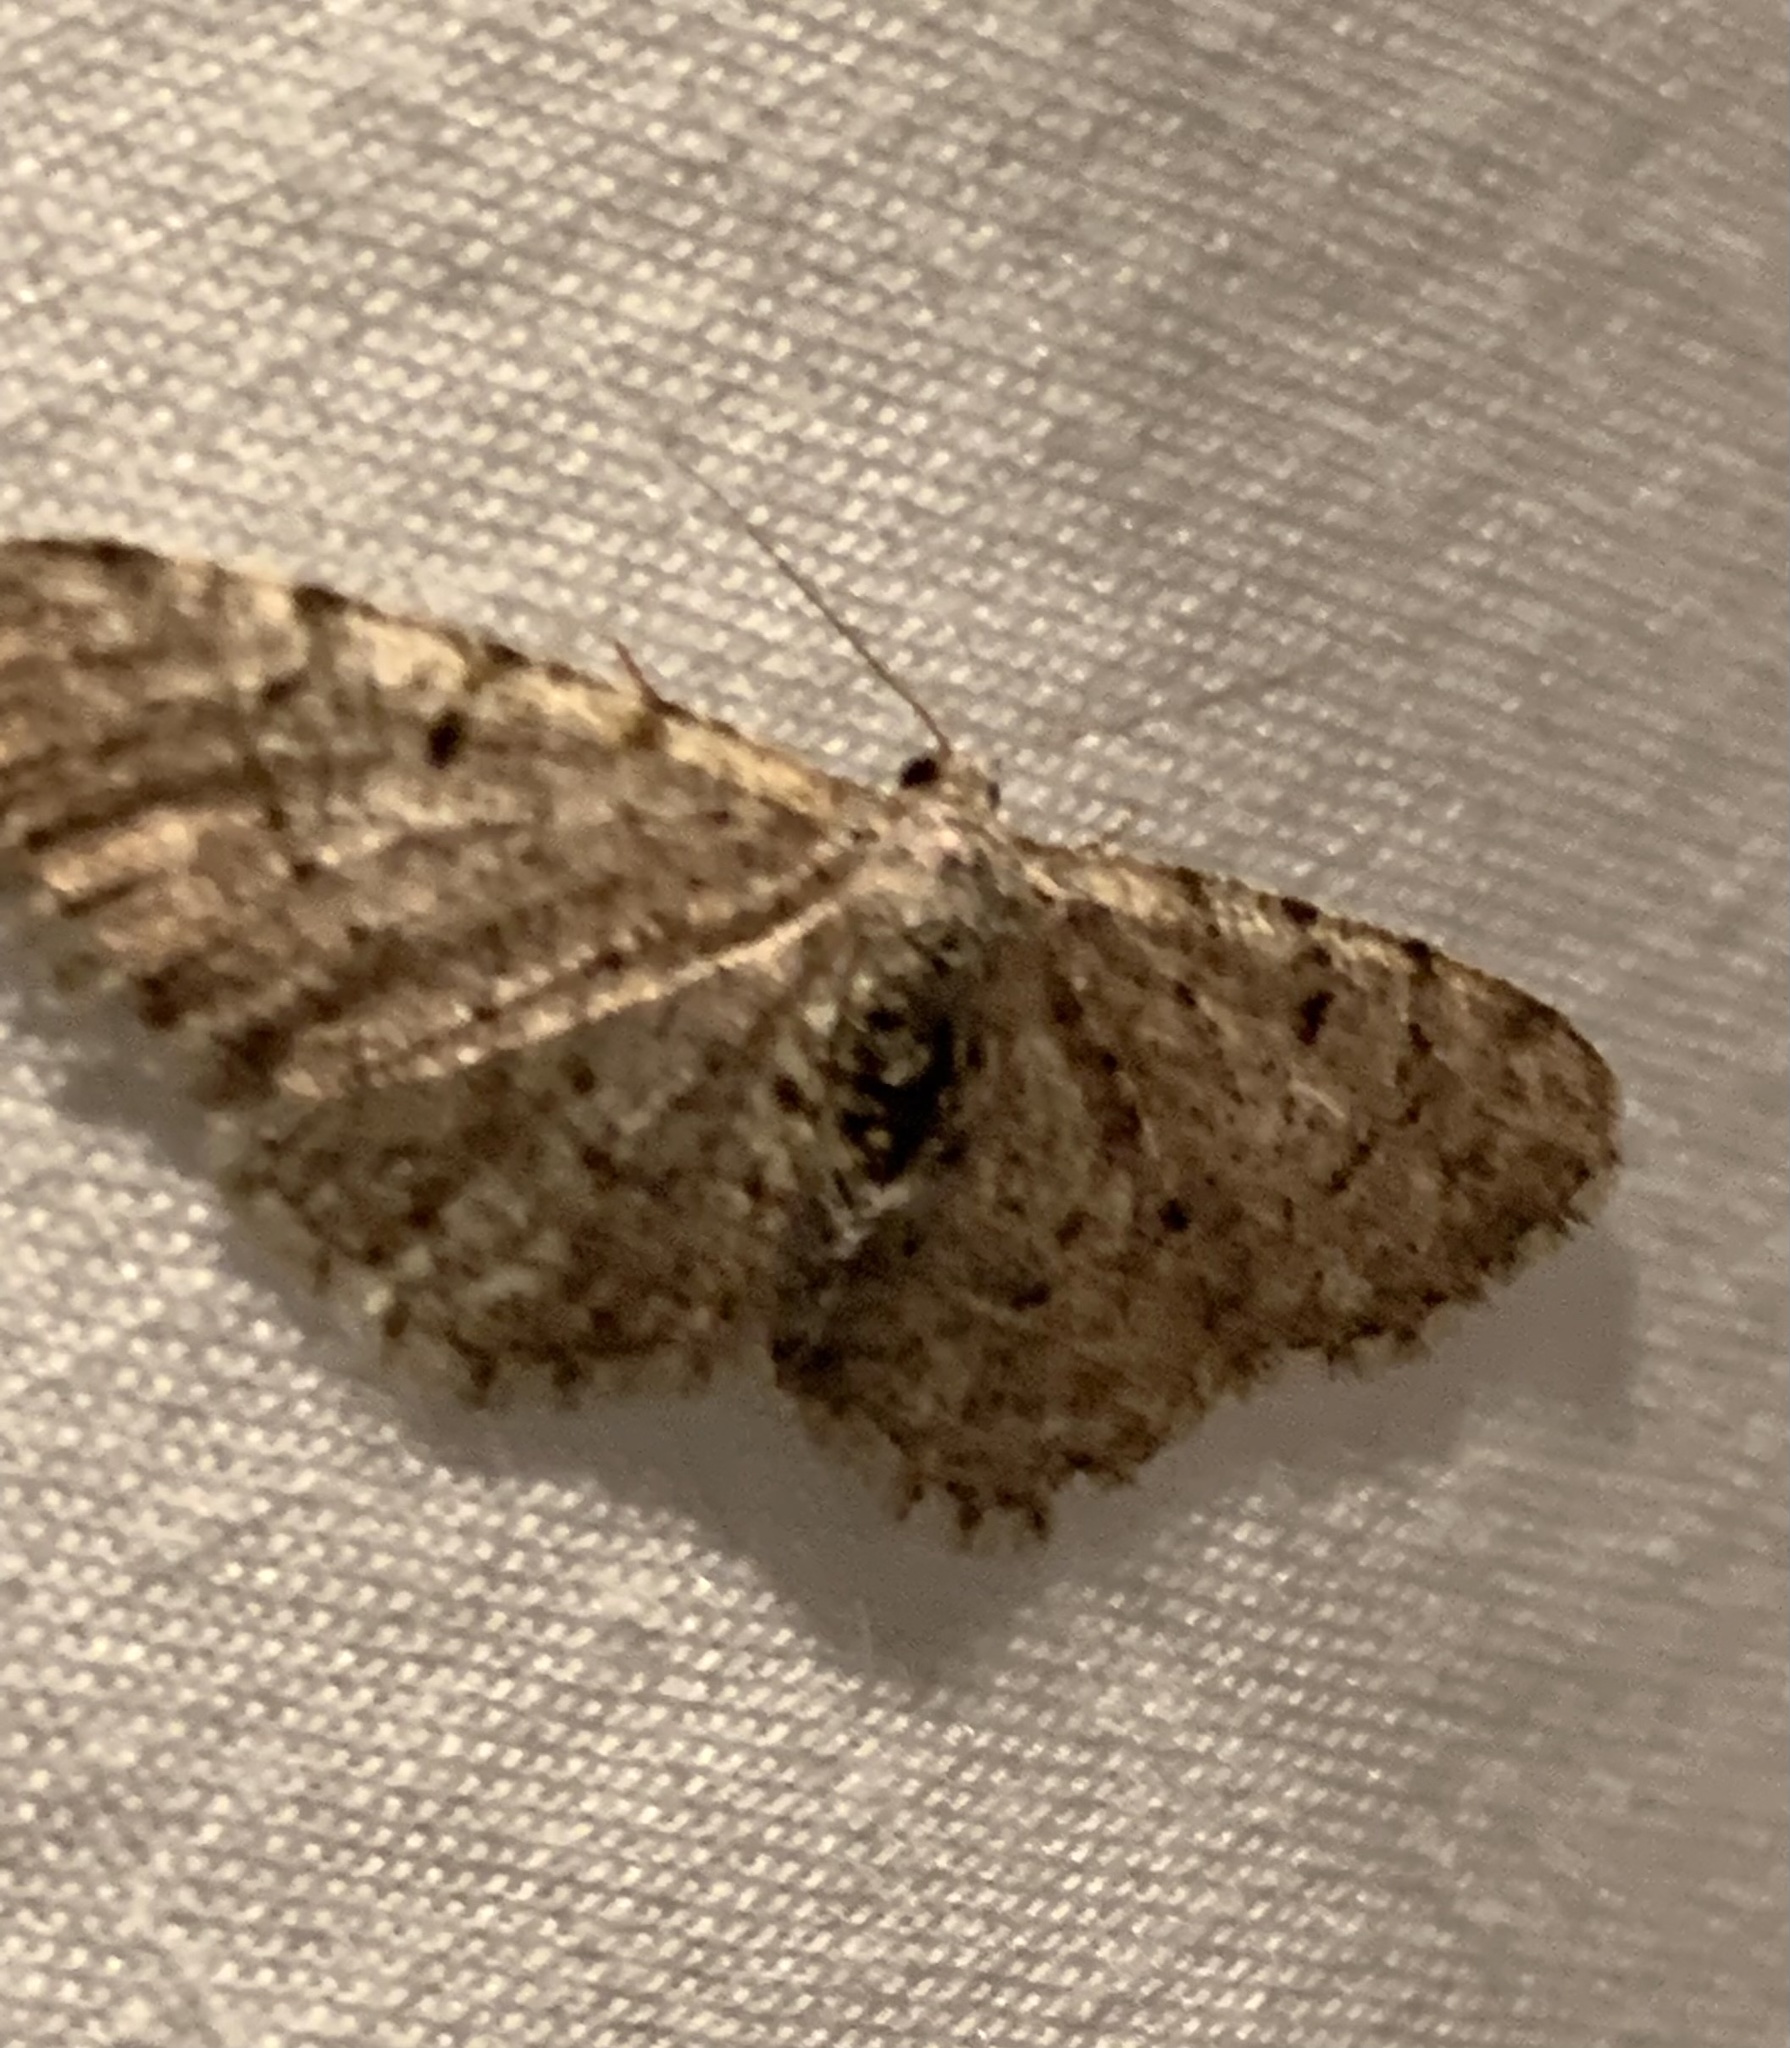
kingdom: Animalia
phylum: Arthropoda
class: Insecta
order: Lepidoptera
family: Geometridae
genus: Aethalura
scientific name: Aethalura intertexta
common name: Four-barred gray
